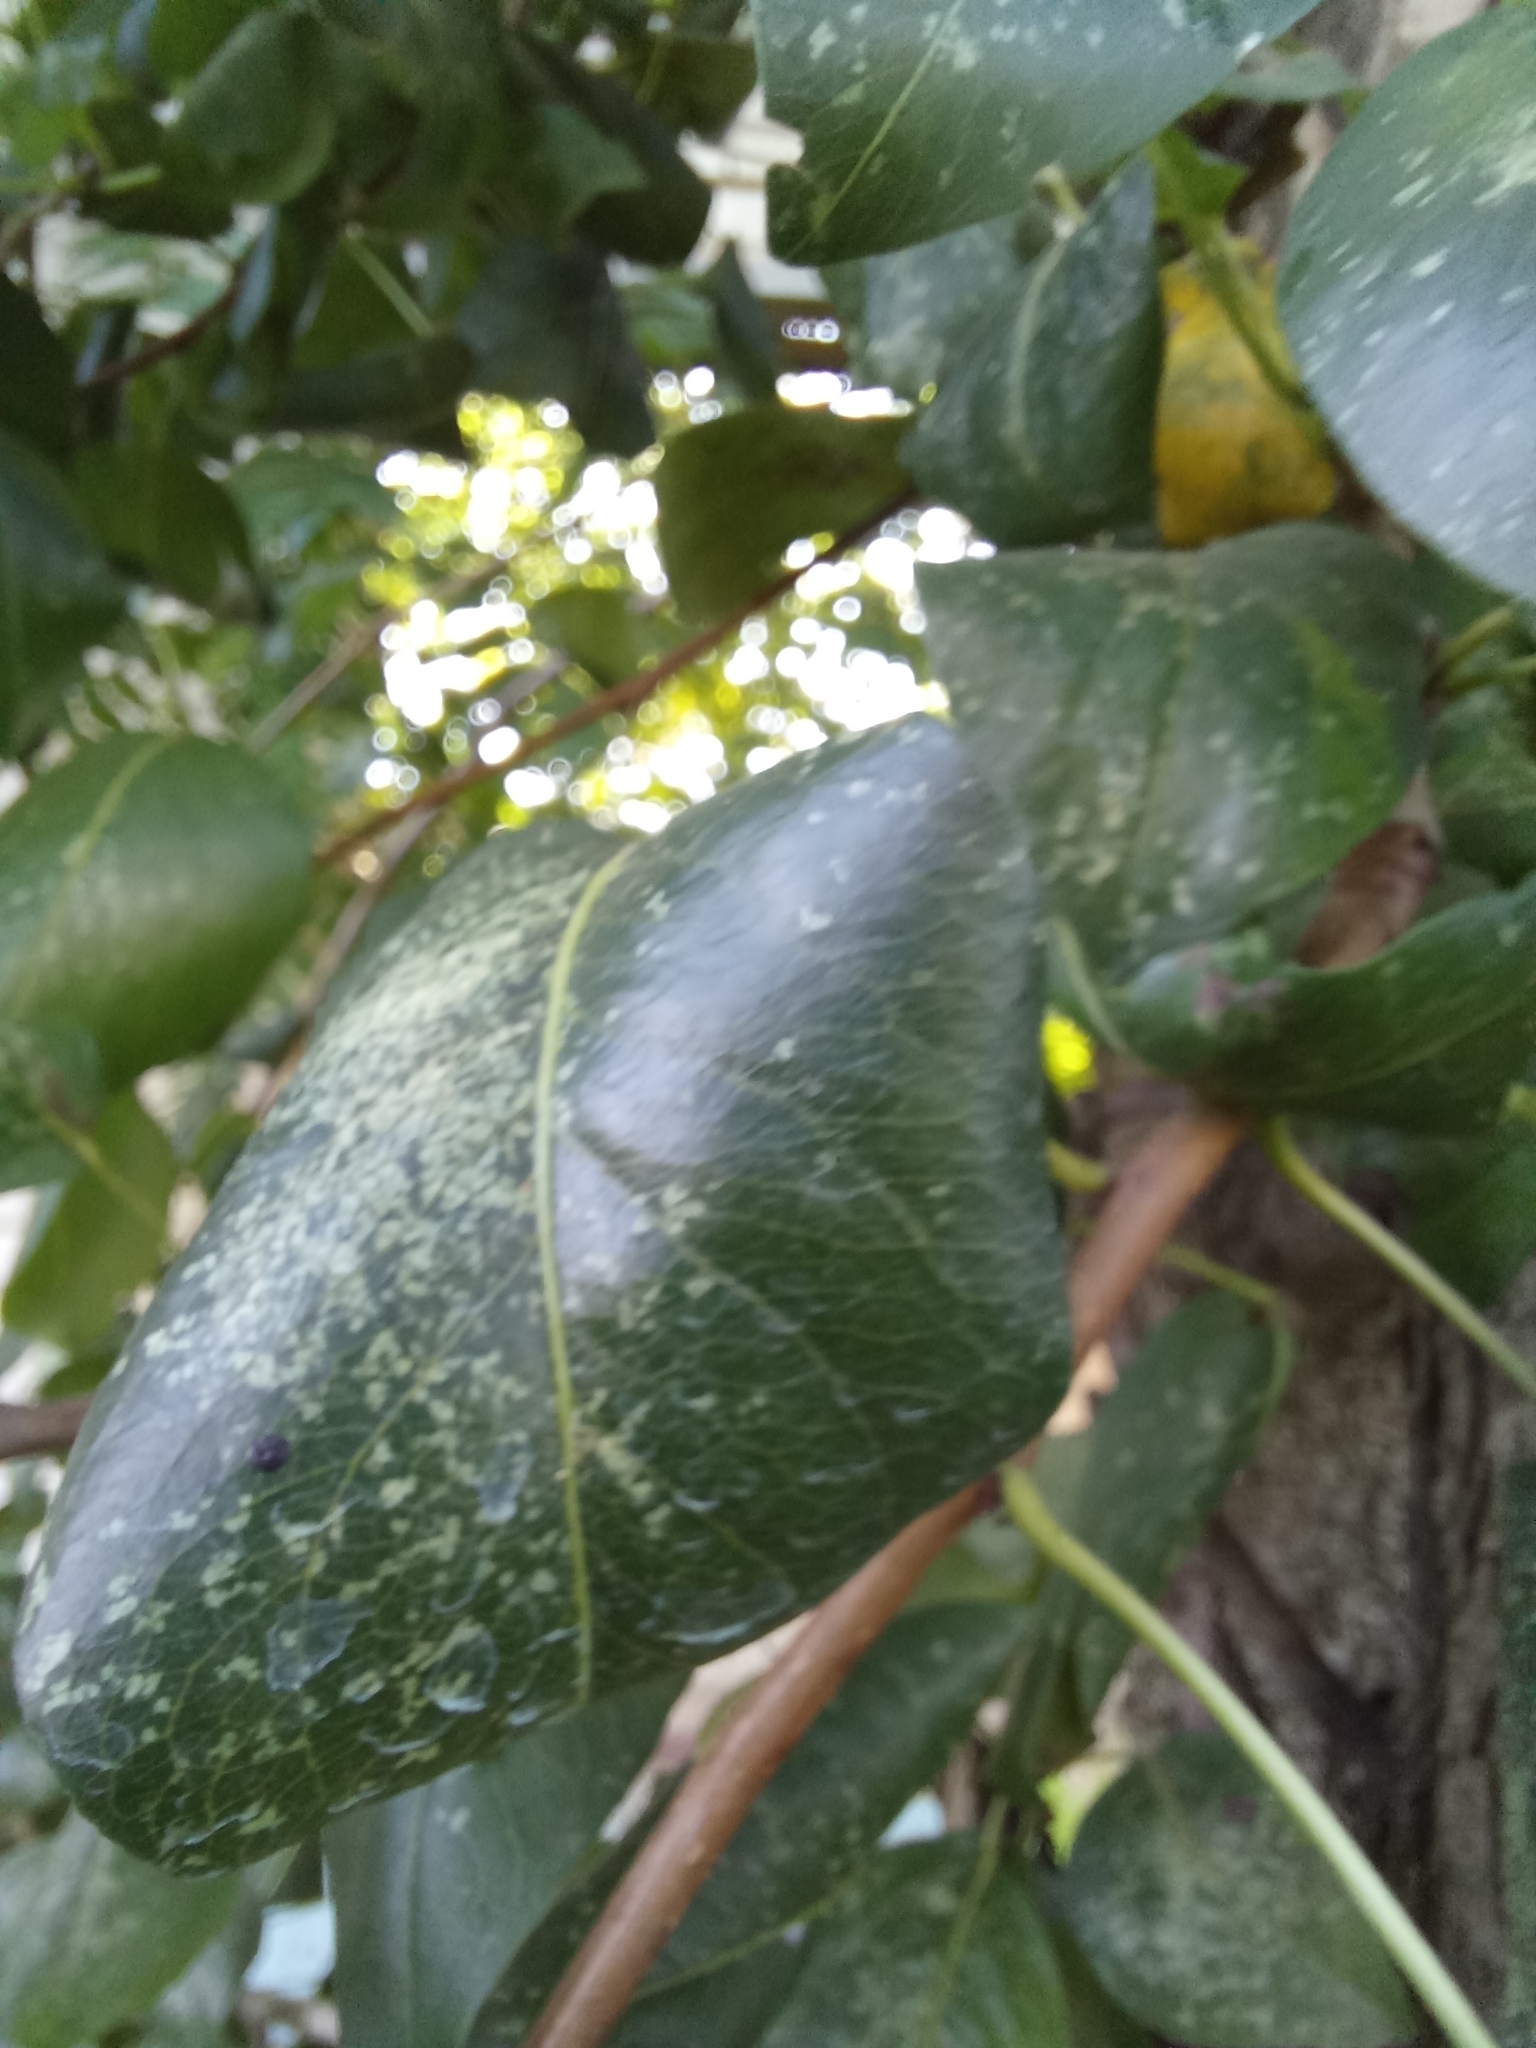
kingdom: Animalia
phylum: Arthropoda
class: Insecta
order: Hemiptera
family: Tingidae
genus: Stephanitis
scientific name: Stephanitis pyri
